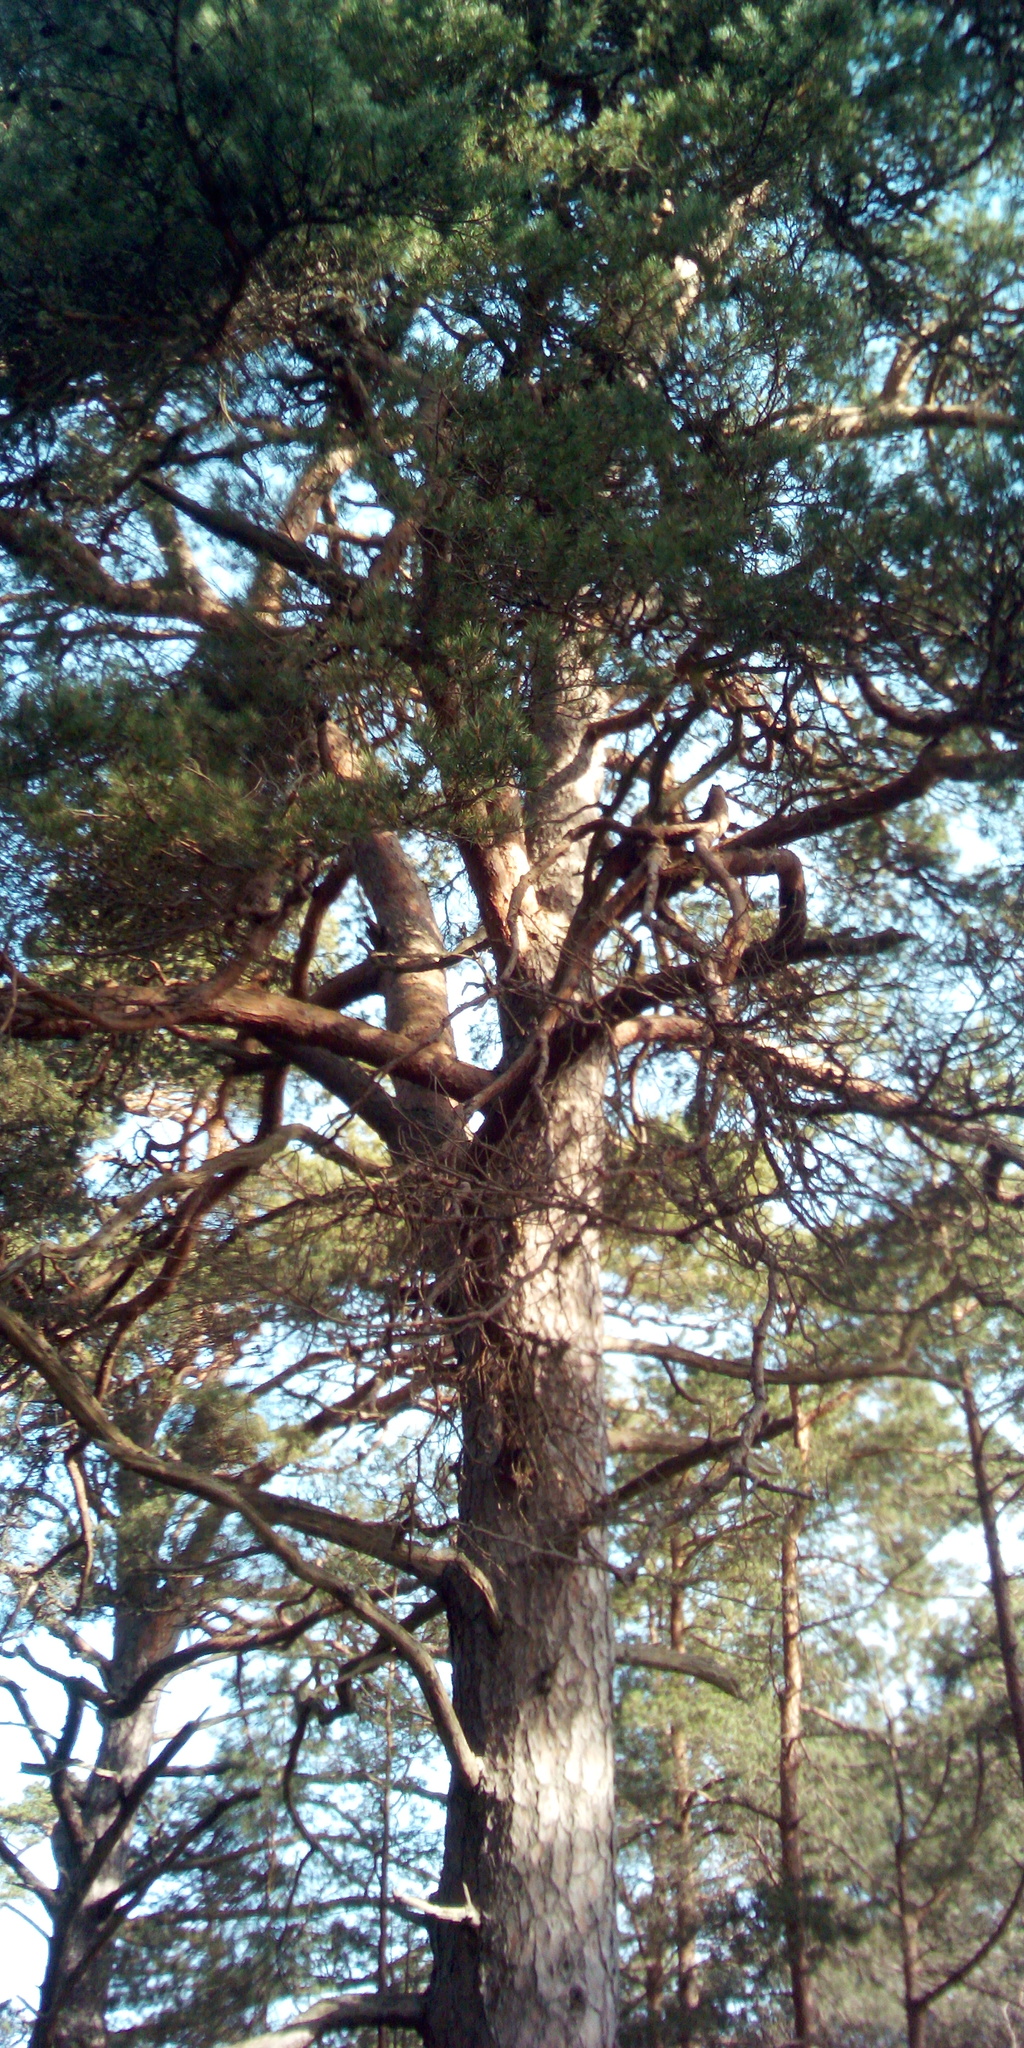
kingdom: Plantae
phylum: Tracheophyta
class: Pinopsida
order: Pinales
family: Pinaceae
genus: Pinus
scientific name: Pinus sylvestris
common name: Scots pine
